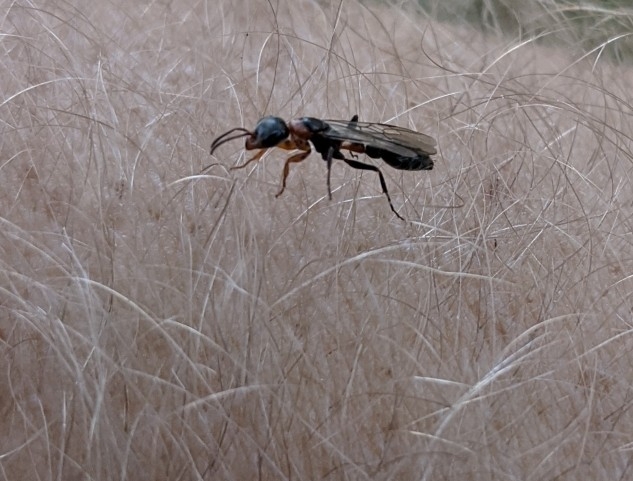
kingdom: Animalia
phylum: Arthropoda
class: Insecta
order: Hymenoptera
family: Formicidae
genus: Pseudomyrmex
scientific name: Pseudomyrmex gracilis
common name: Graceful twig ant
